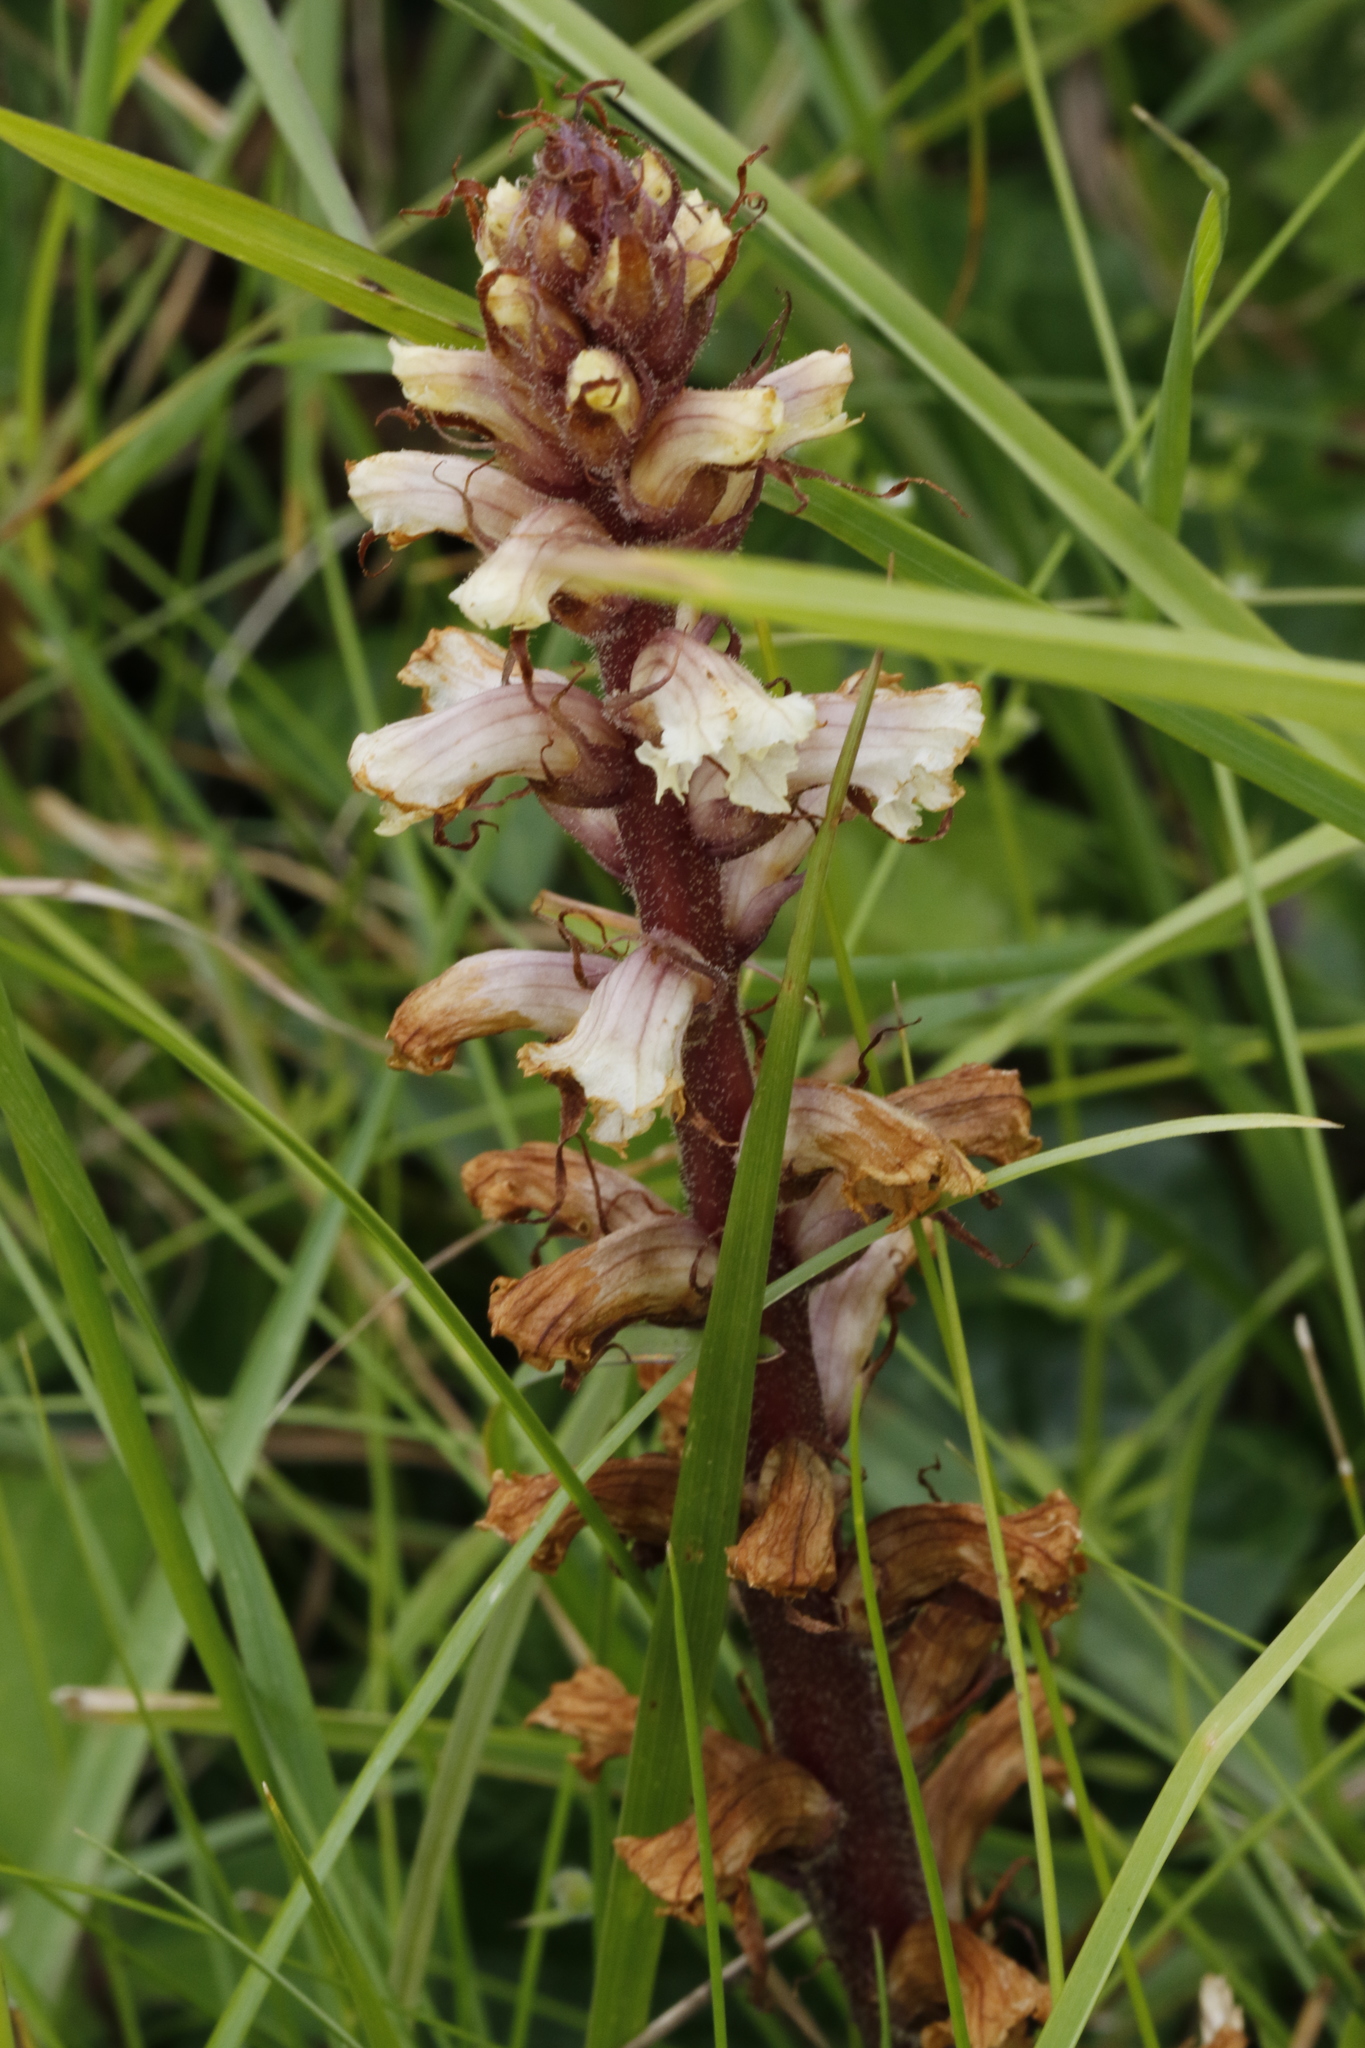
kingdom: Plantae
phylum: Tracheophyta
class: Magnoliopsida
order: Lamiales
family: Orobanchaceae
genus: Orobanche
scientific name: Orobanche minor
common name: Common broomrape
